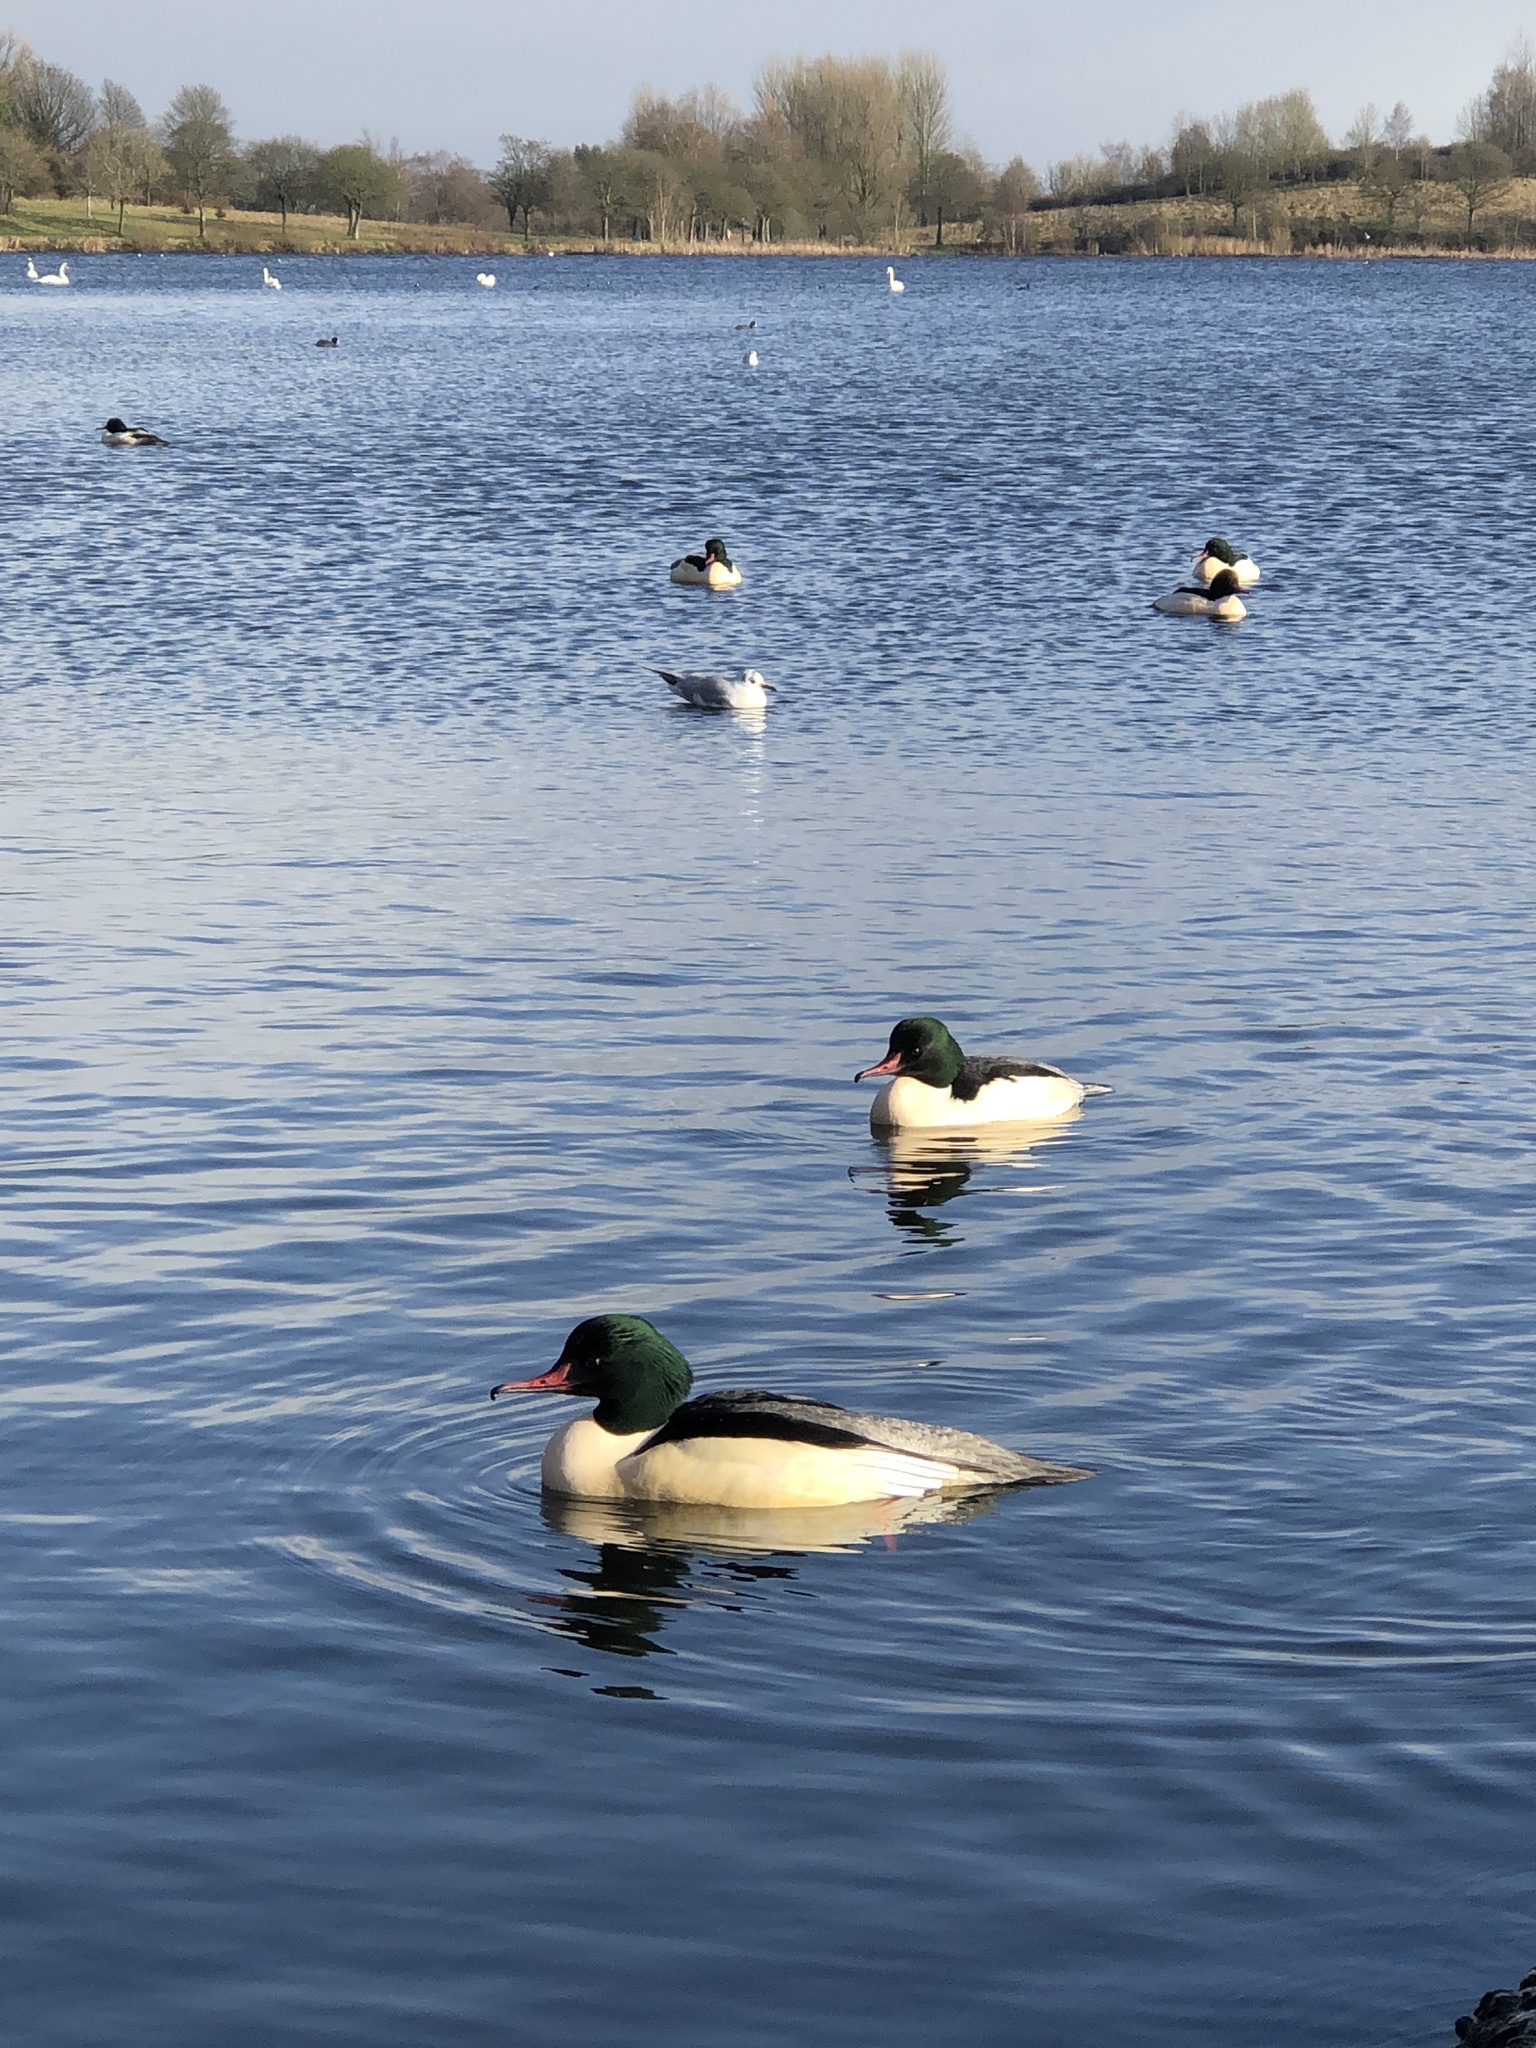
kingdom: Animalia
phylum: Chordata
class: Aves
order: Anseriformes
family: Anatidae
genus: Mergus
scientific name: Mergus merganser
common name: Common merganser
